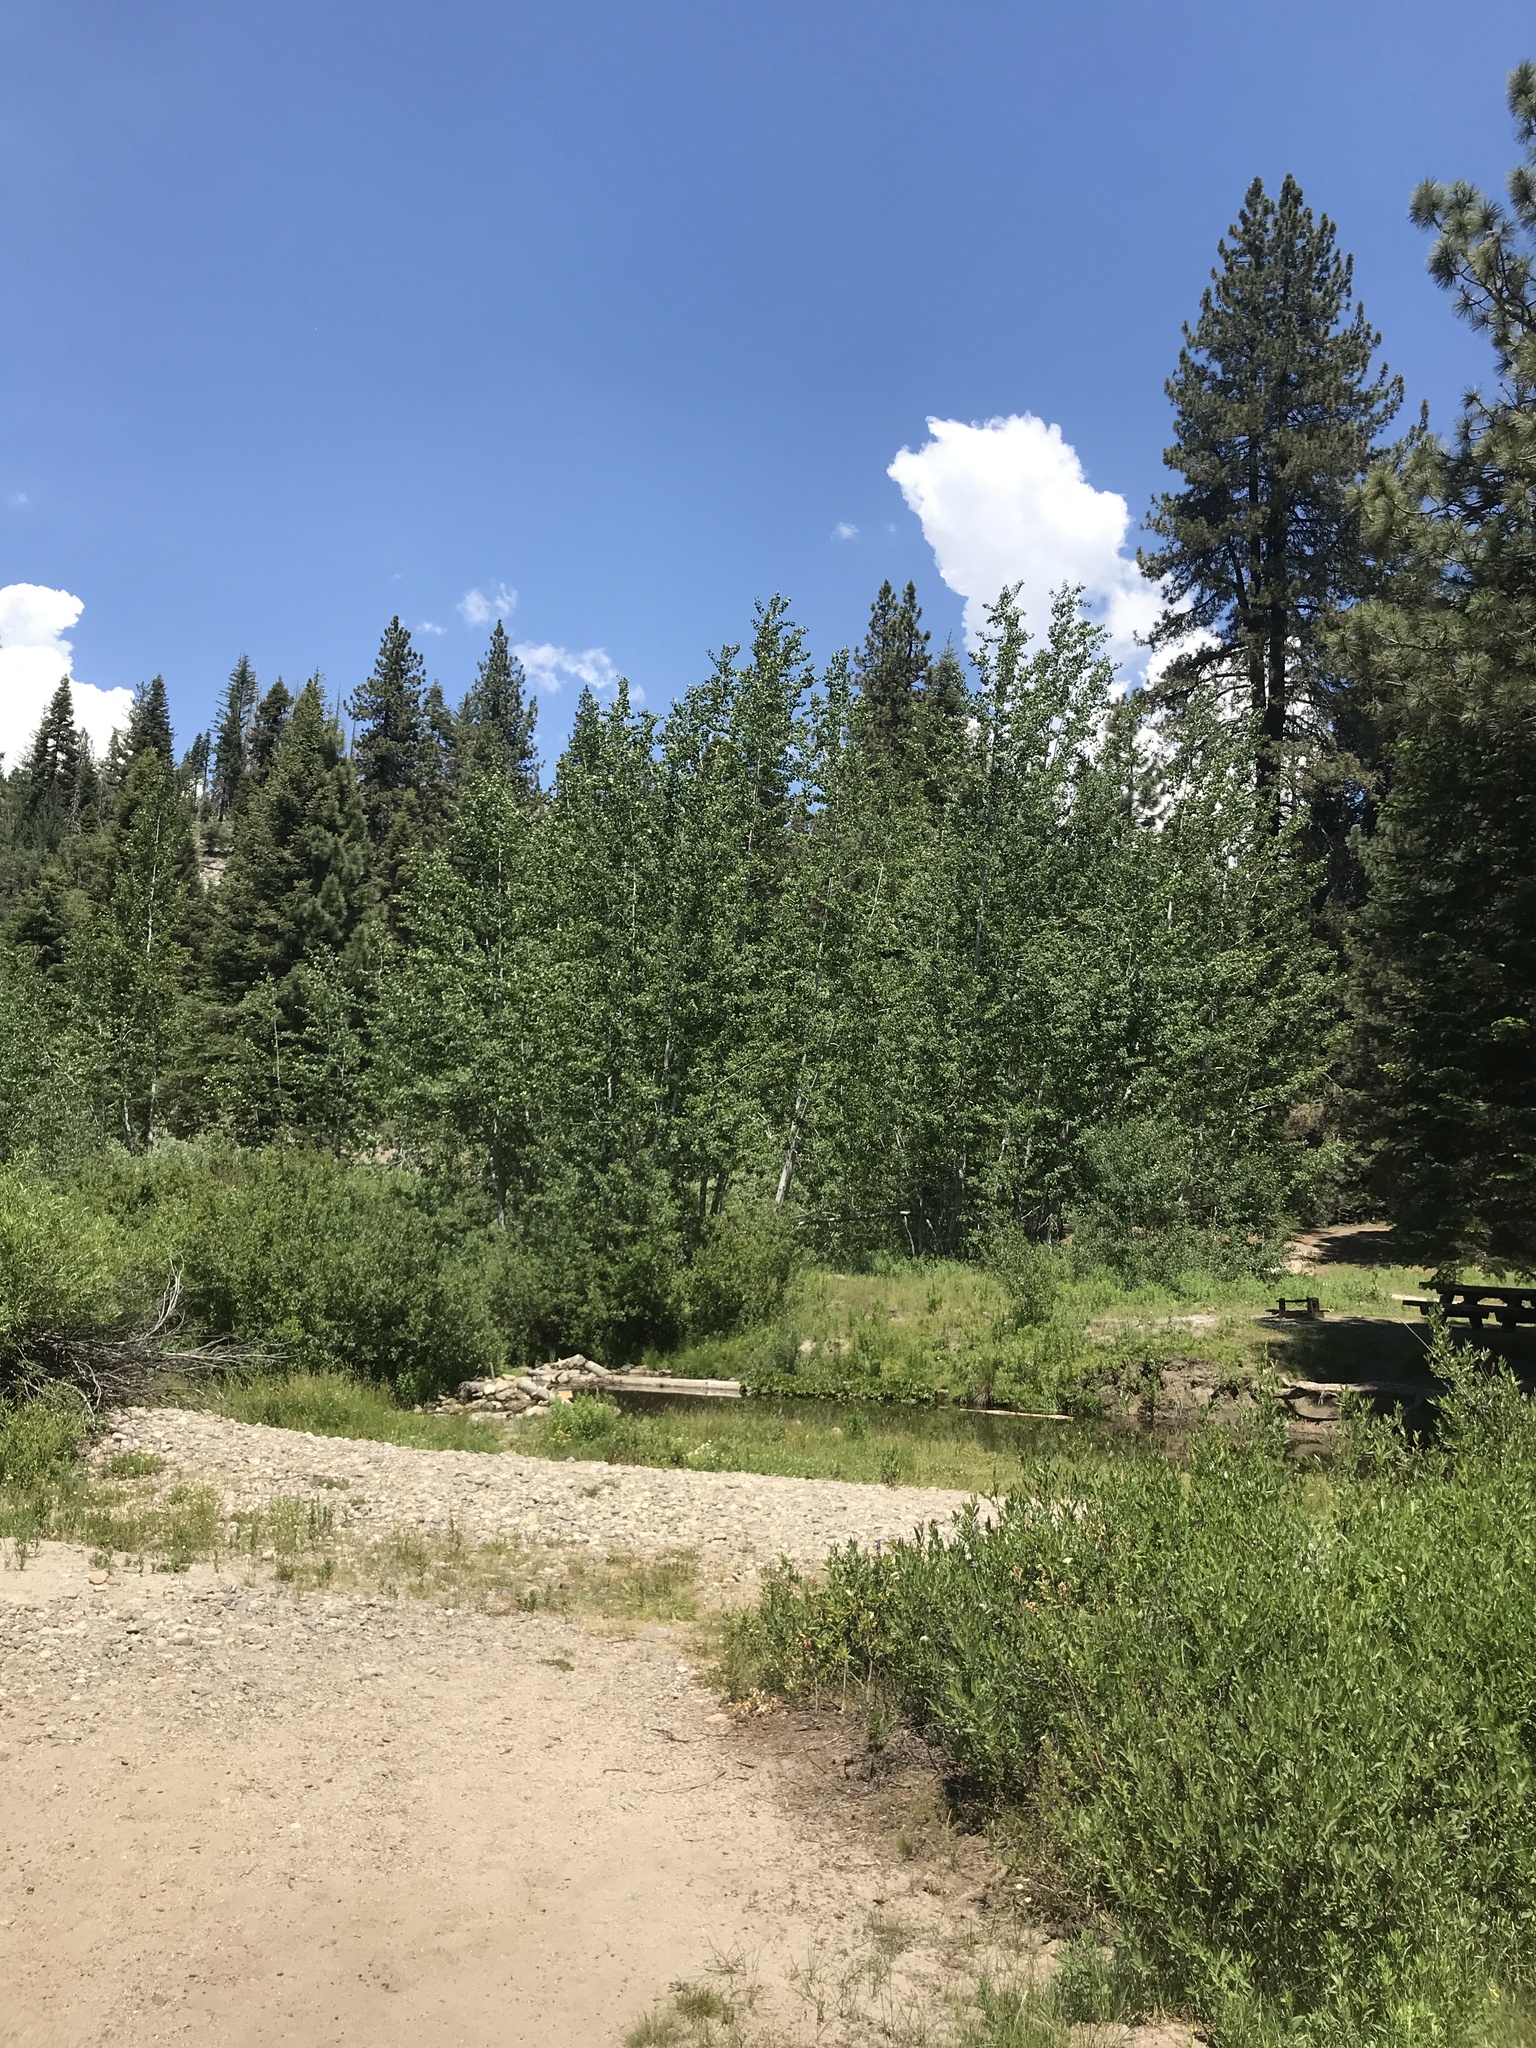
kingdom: Plantae
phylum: Tracheophyta
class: Magnoliopsida
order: Malpighiales
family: Salicaceae
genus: Populus
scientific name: Populus tremuloides
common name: Quaking aspen
